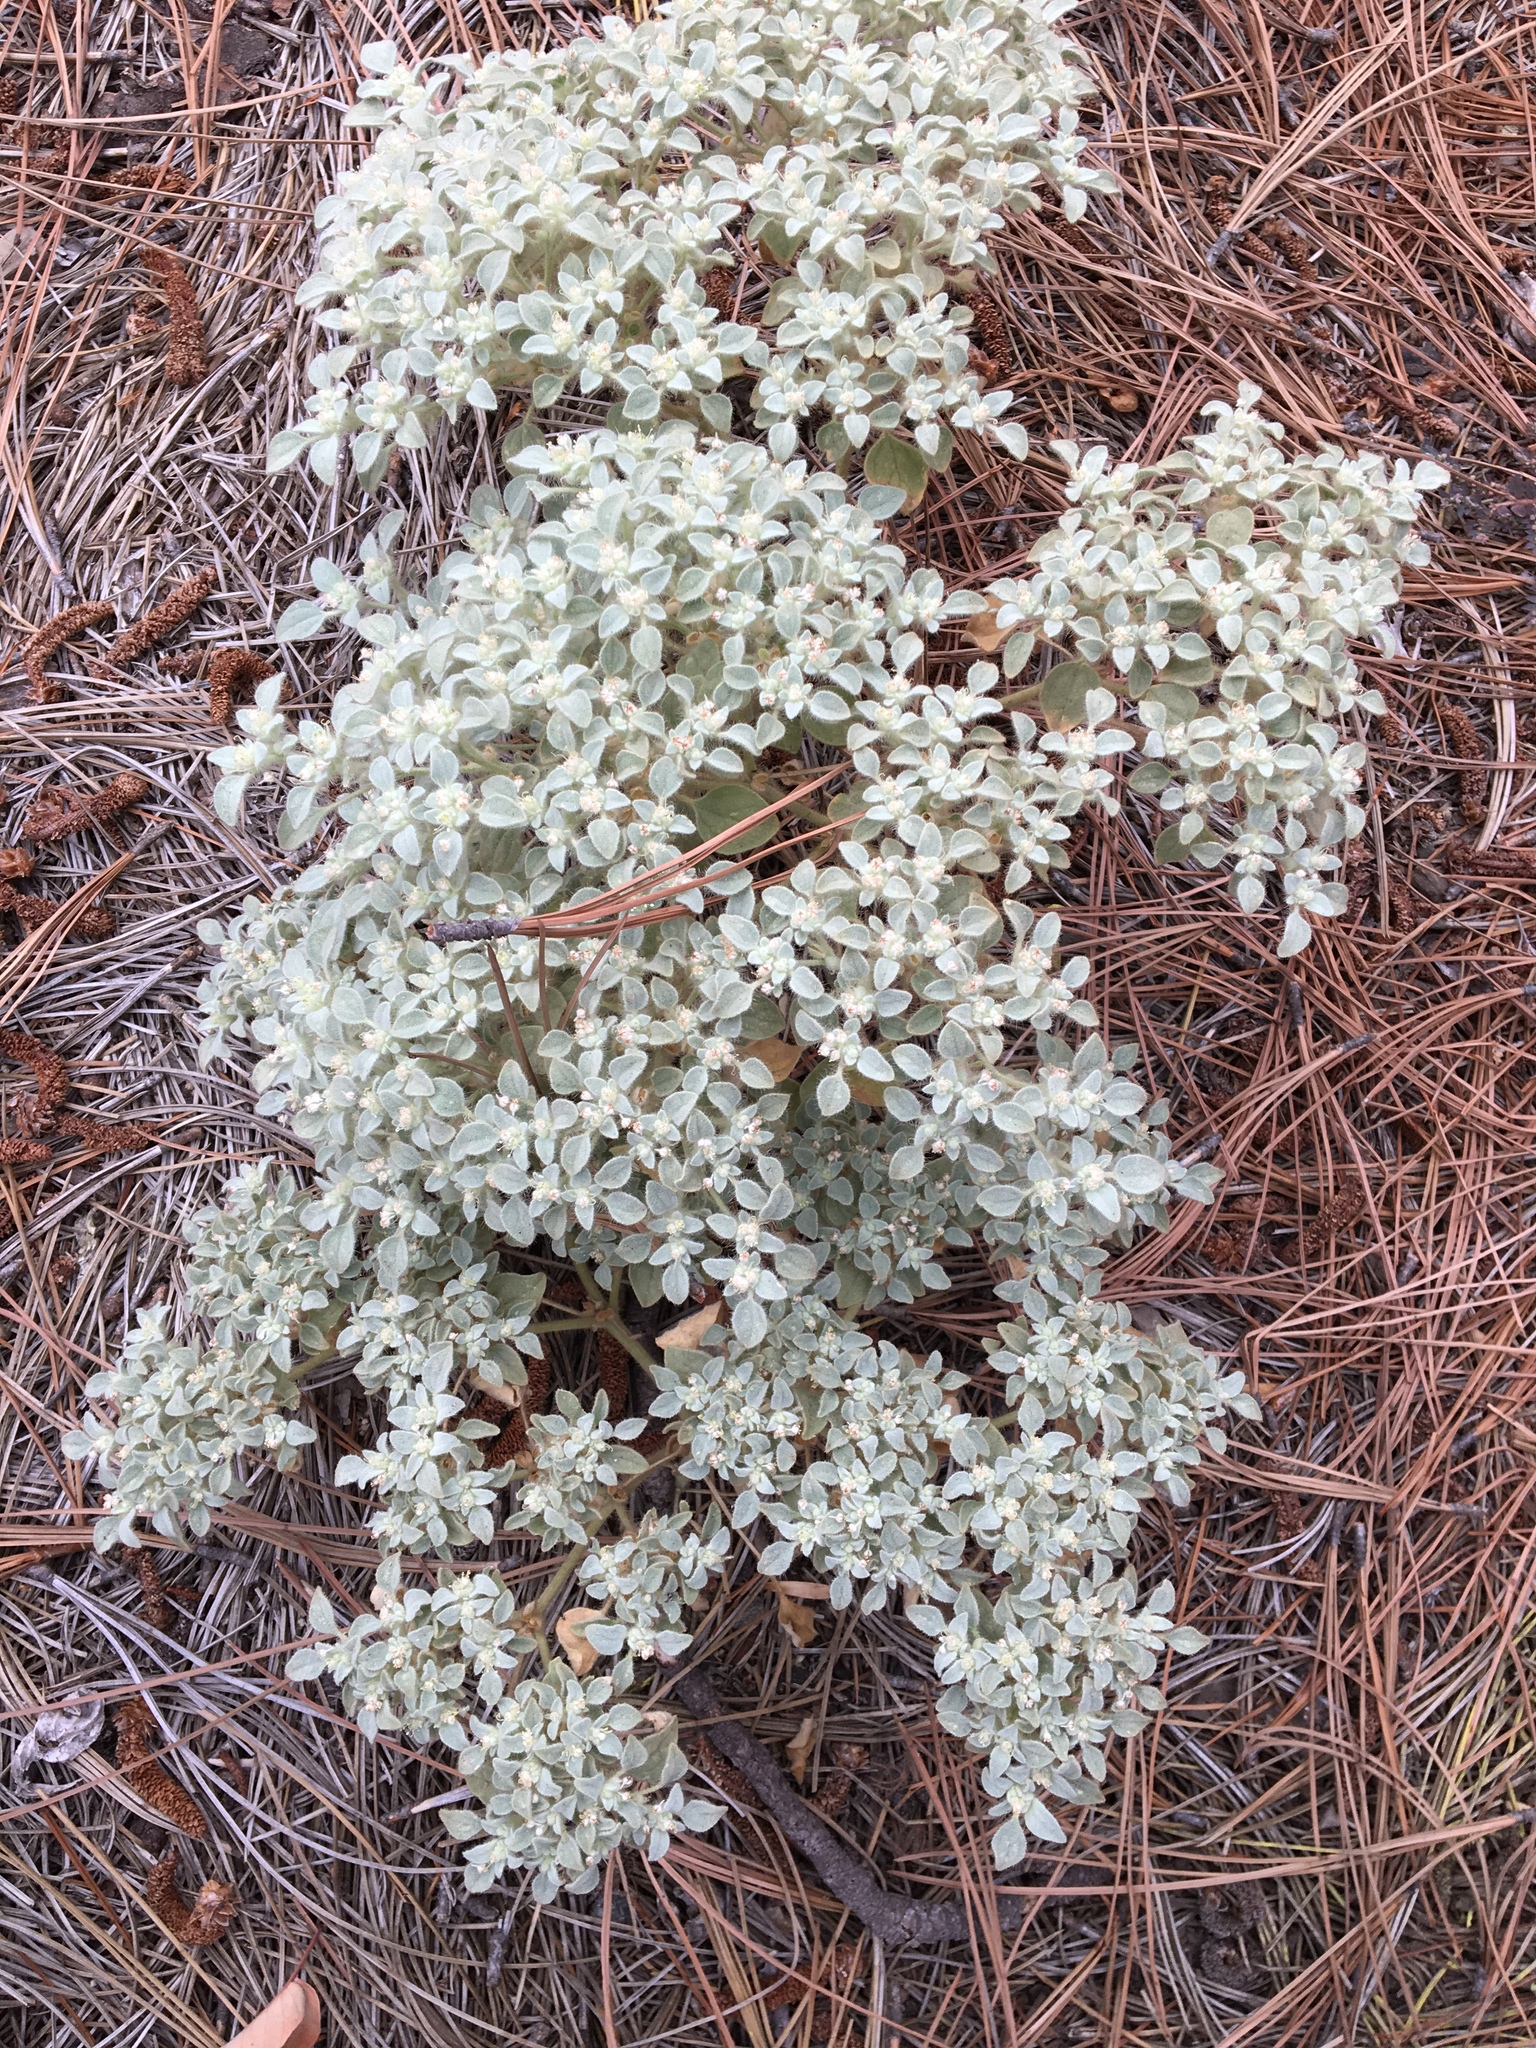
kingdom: Plantae
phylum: Tracheophyta
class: Magnoliopsida
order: Malpighiales
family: Euphorbiaceae
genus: Croton
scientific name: Croton setiger
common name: Dove weed
